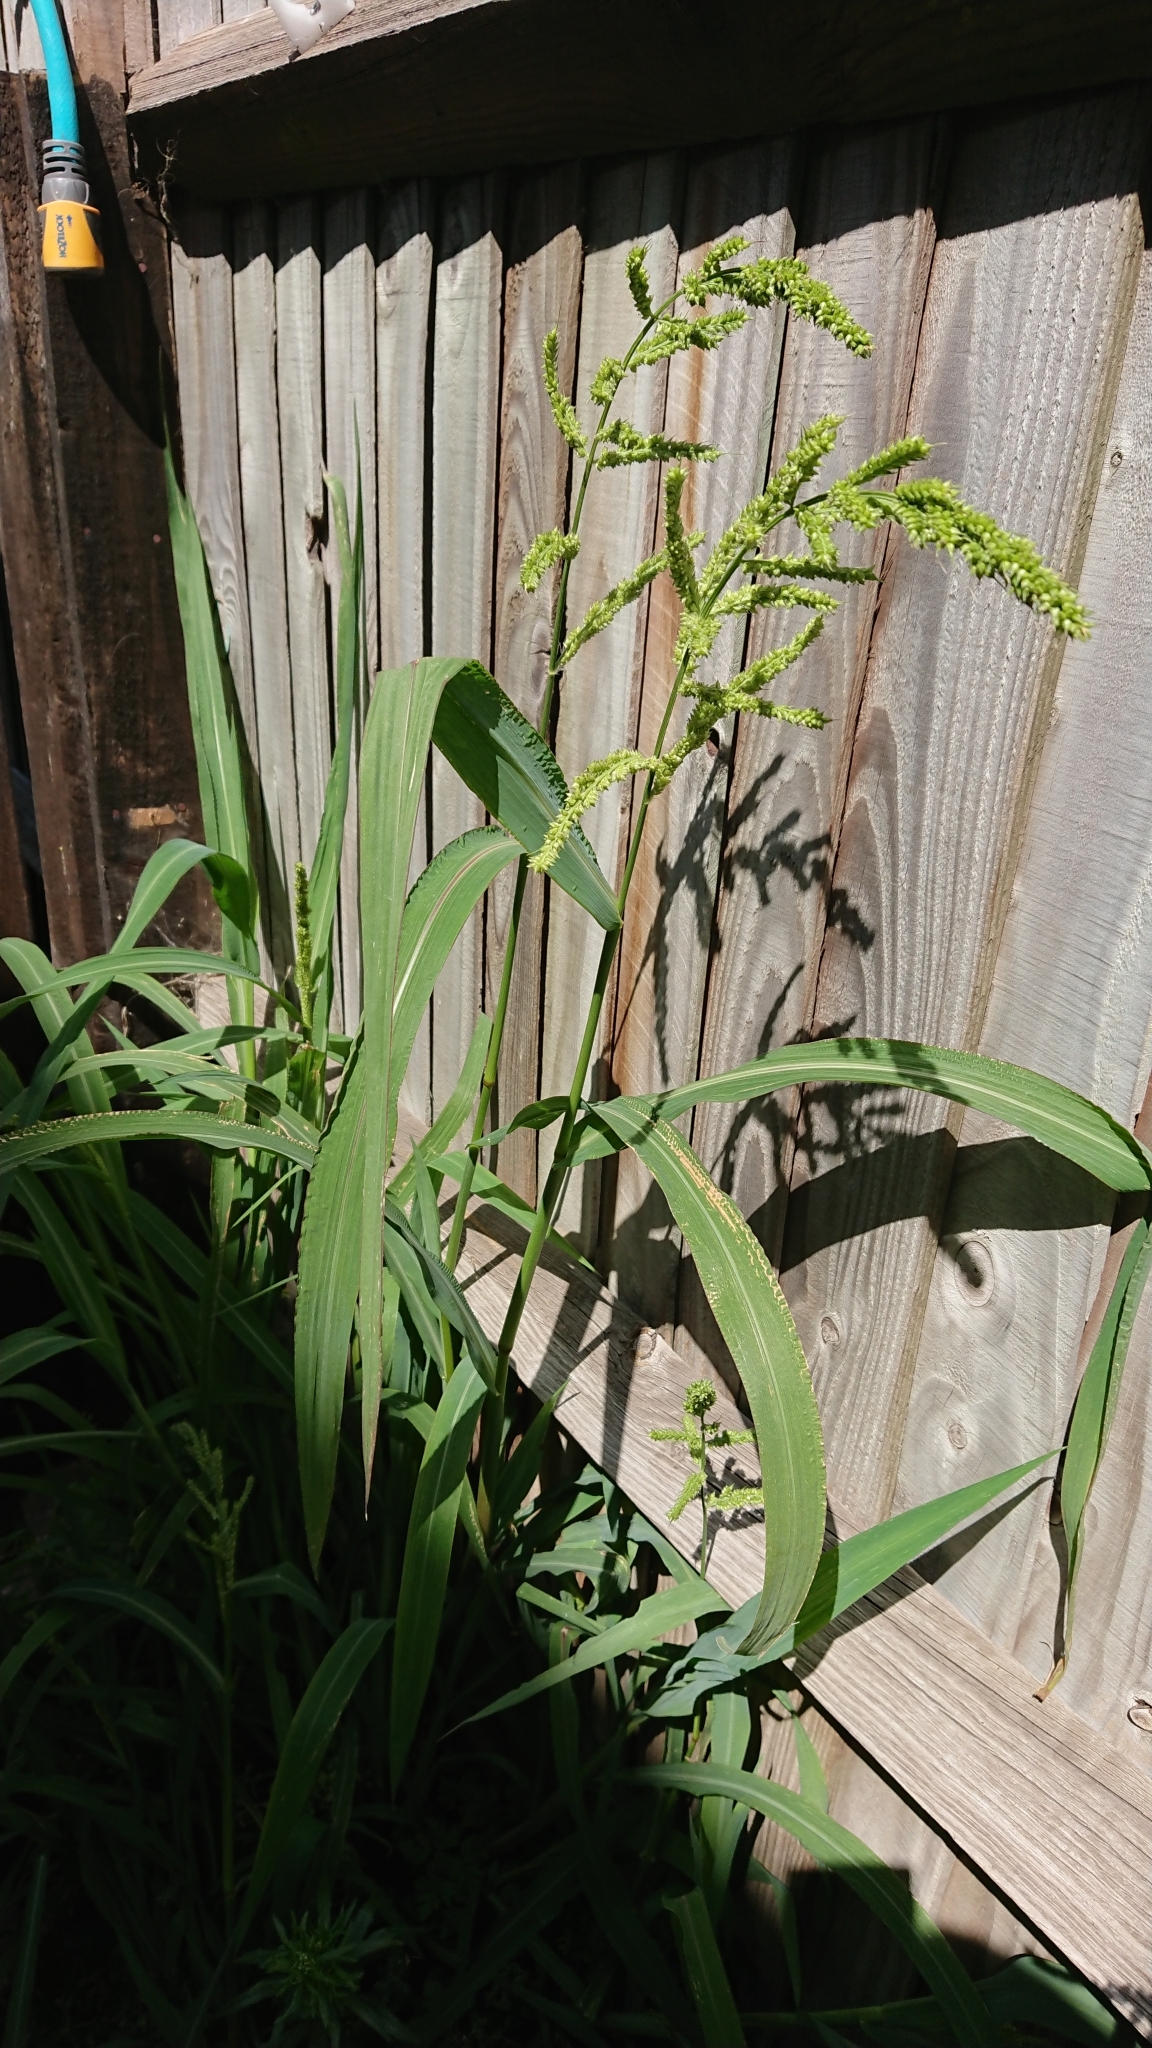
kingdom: Plantae
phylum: Tracheophyta
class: Liliopsida
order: Poales
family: Poaceae
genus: Echinochloa
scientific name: Echinochloa crus-galli
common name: Cockspur
